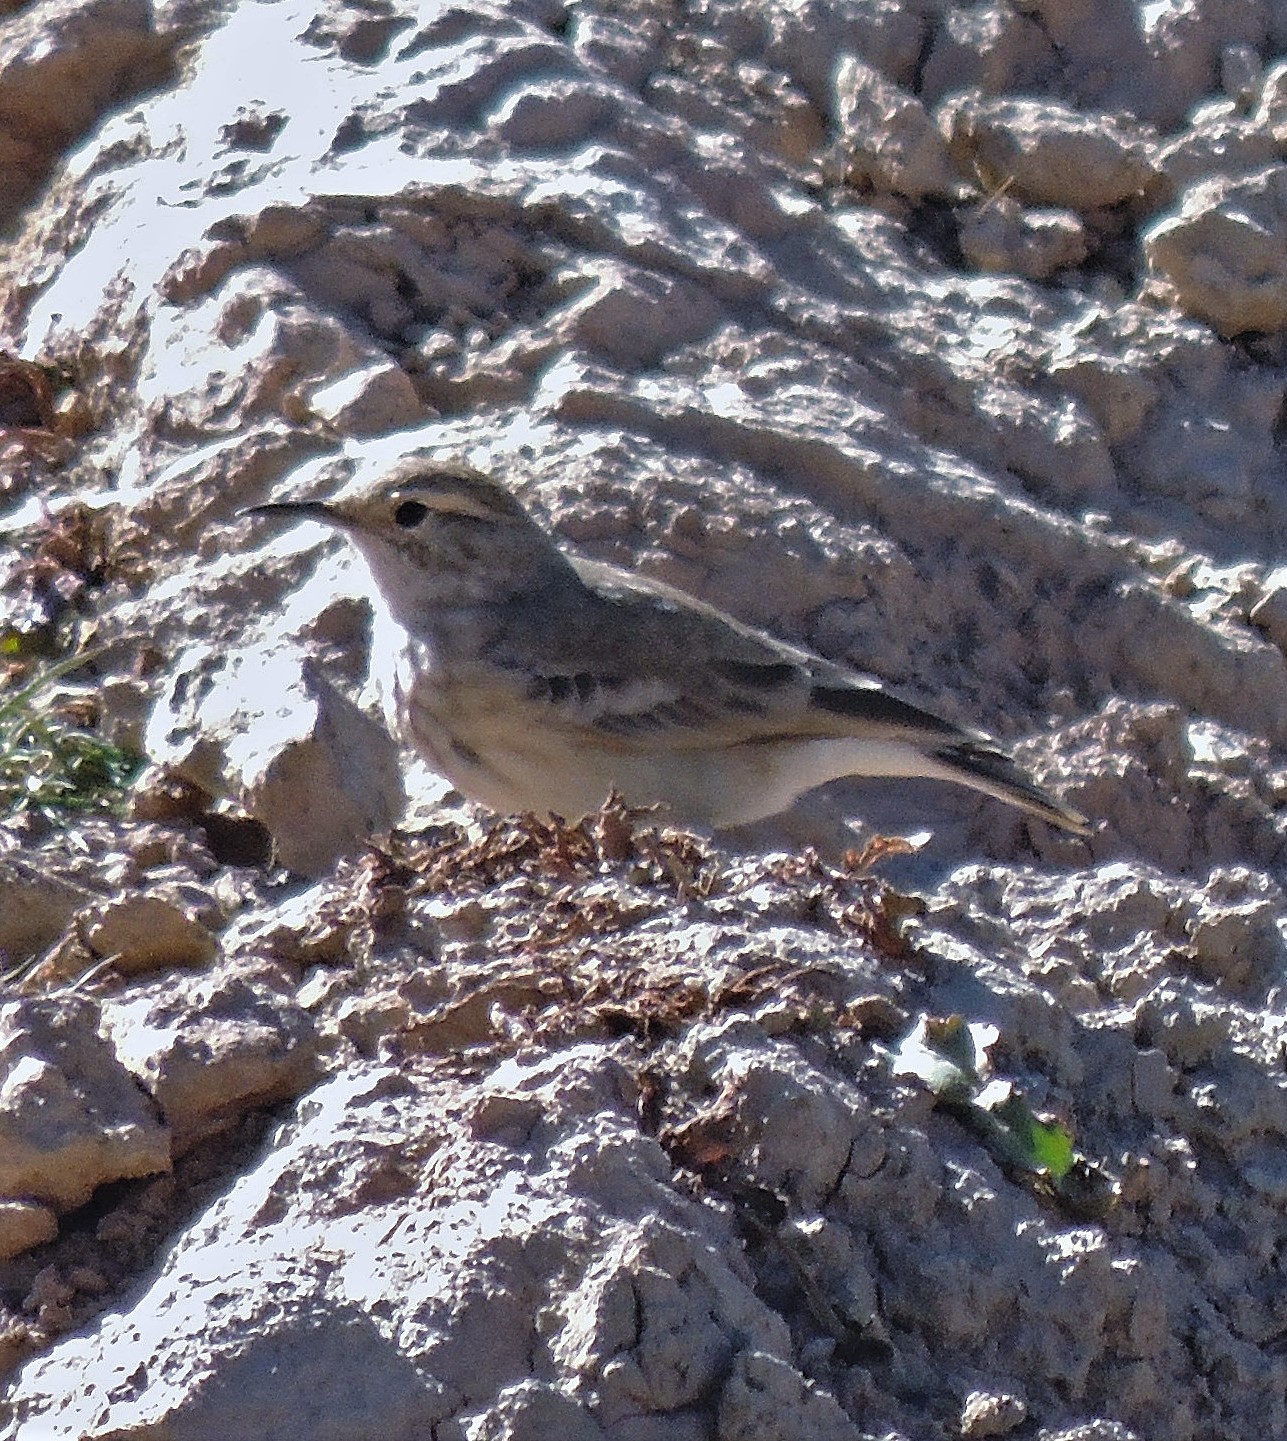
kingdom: Animalia
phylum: Chordata
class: Aves
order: Passeriformes
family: Furnariidae
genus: Geositta
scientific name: Geositta cunicularia
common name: Common miner
